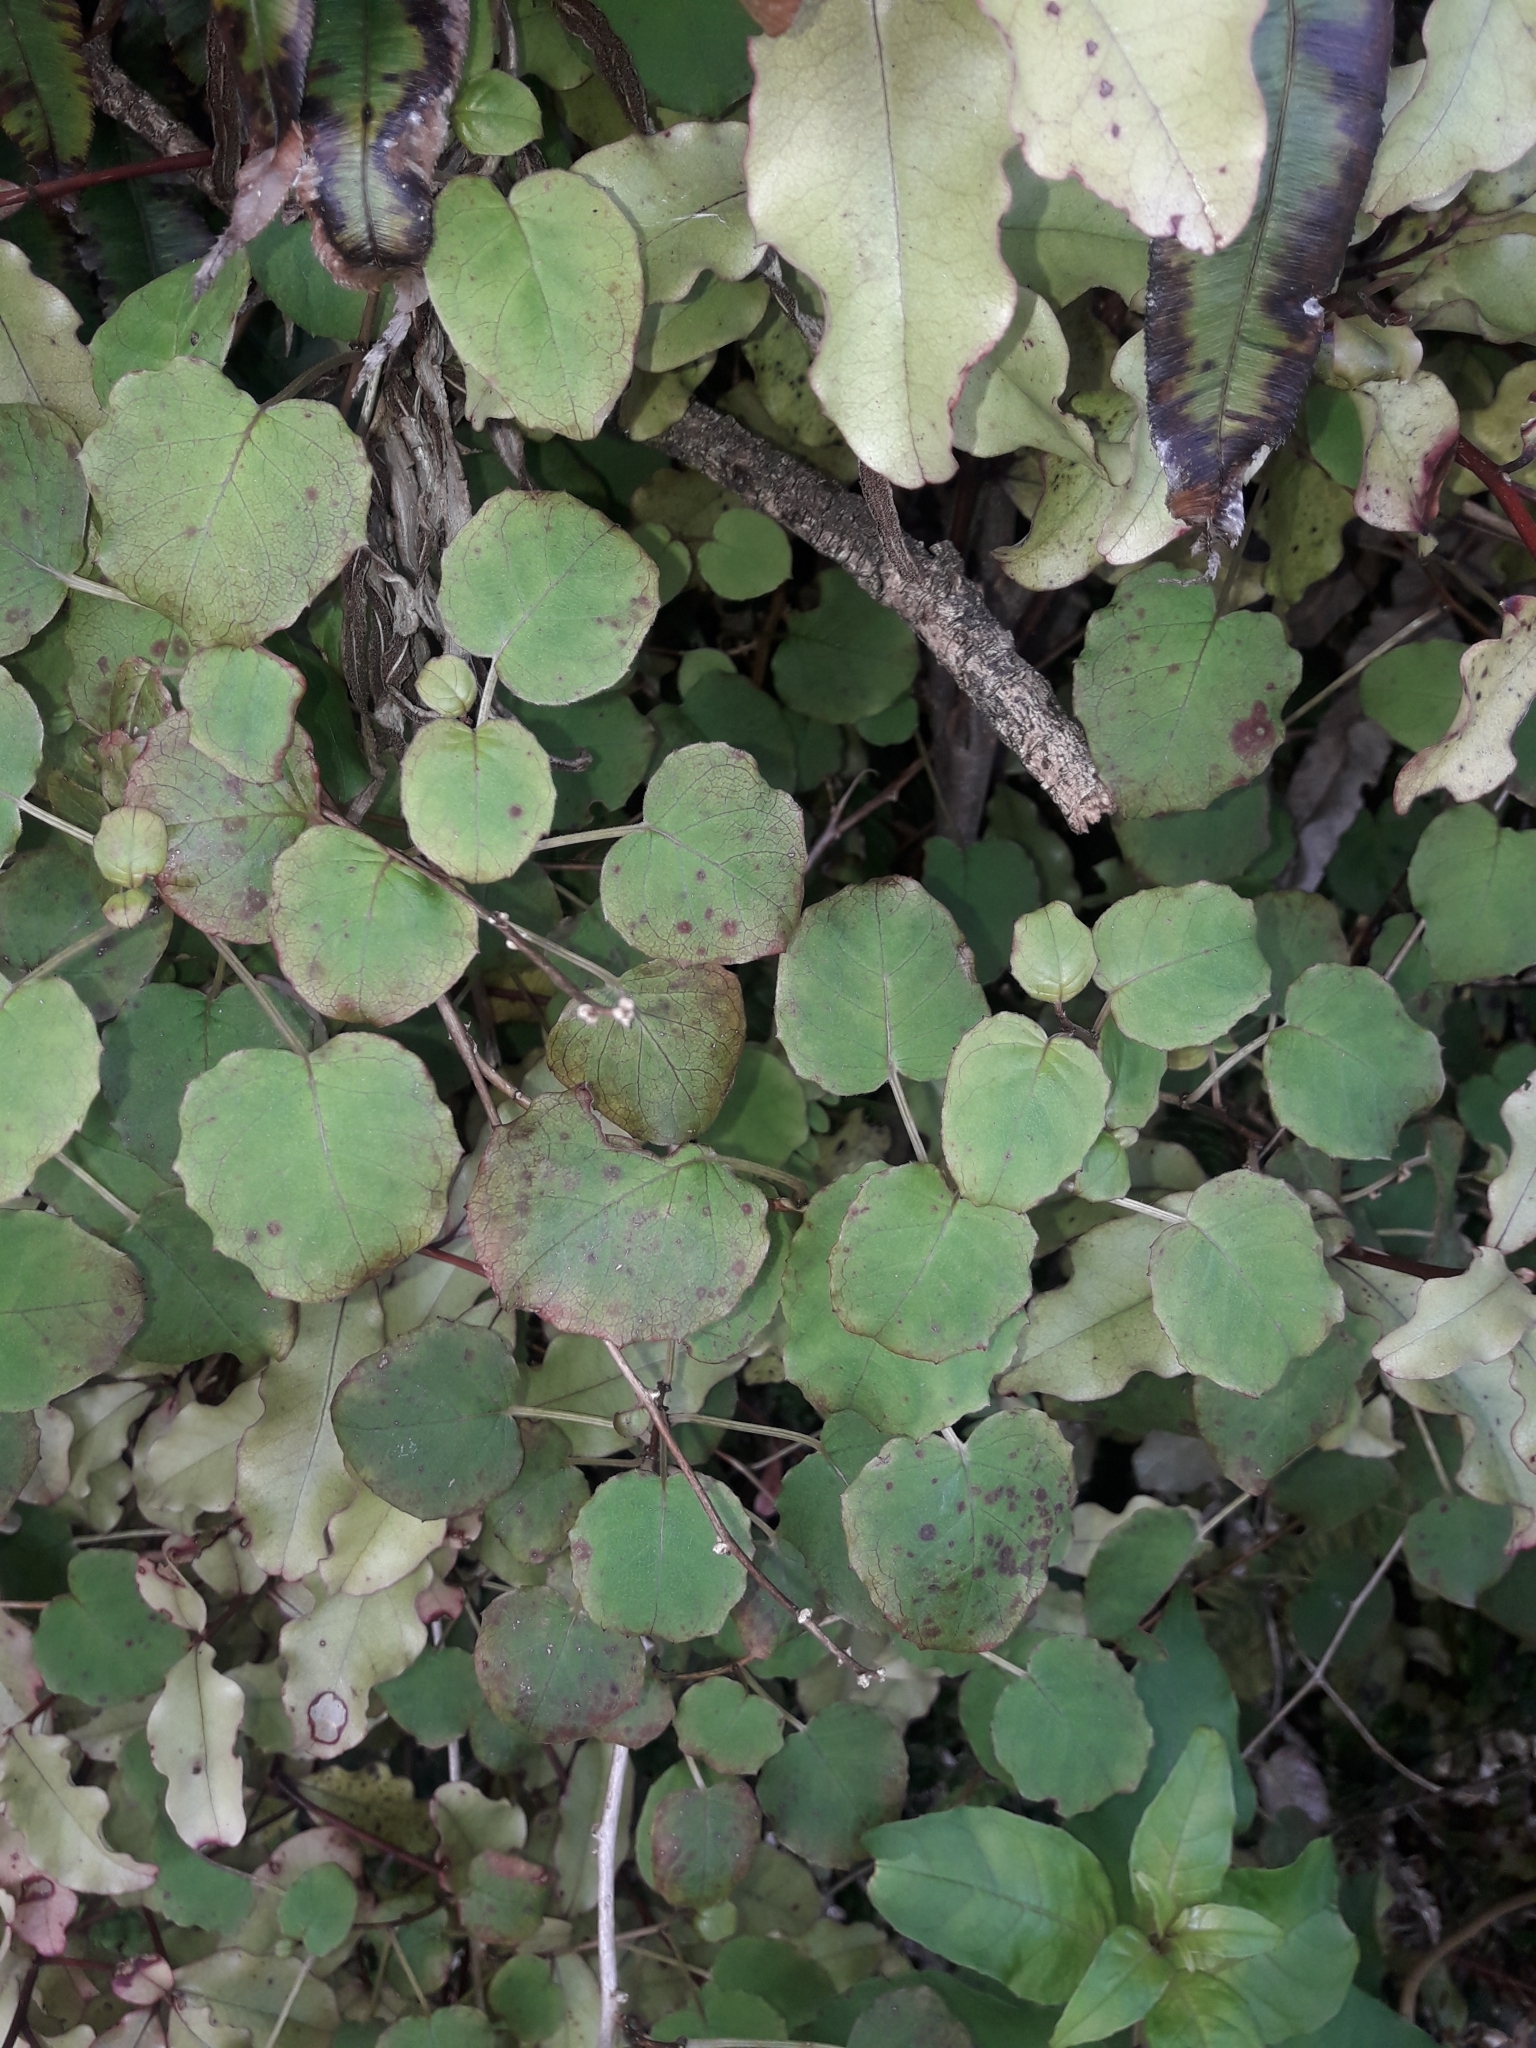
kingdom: Plantae
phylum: Tracheophyta
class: Magnoliopsida
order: Myrtales
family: Onagraceae
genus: Fuchsia
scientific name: Fuchsia perscandens
